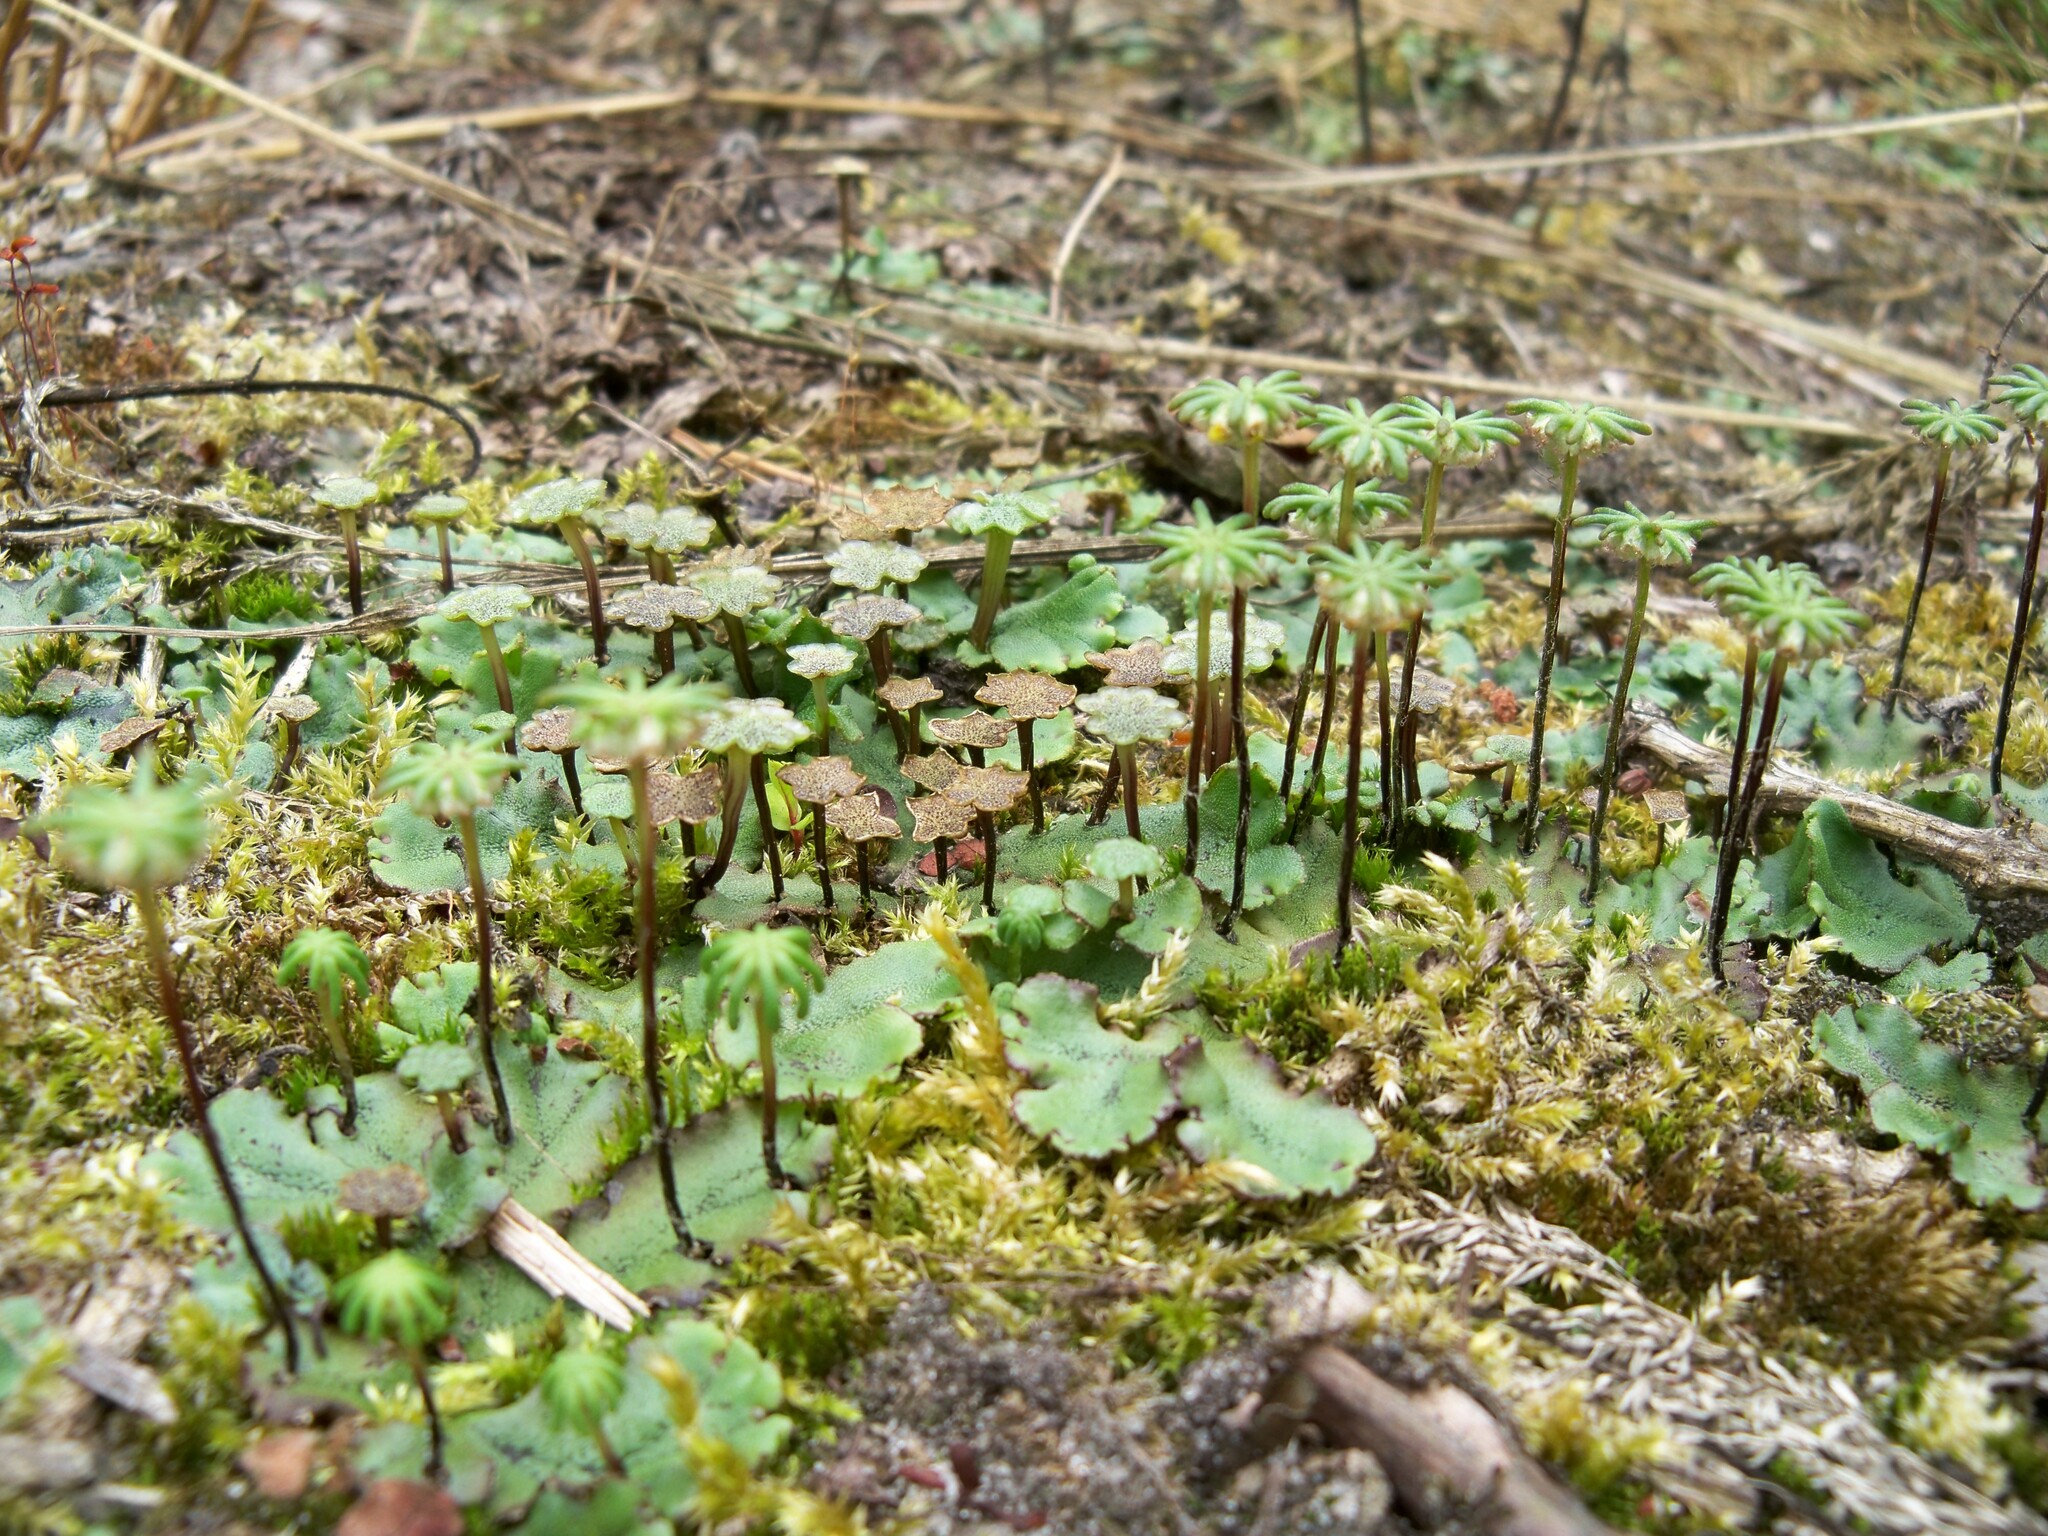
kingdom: Plantae
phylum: Marchantiophyta
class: Marchantiopsida
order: Marchantiales
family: Marchantiaceae
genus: Marchantia
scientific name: Marchantia polymorpha
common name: Common liverwort
